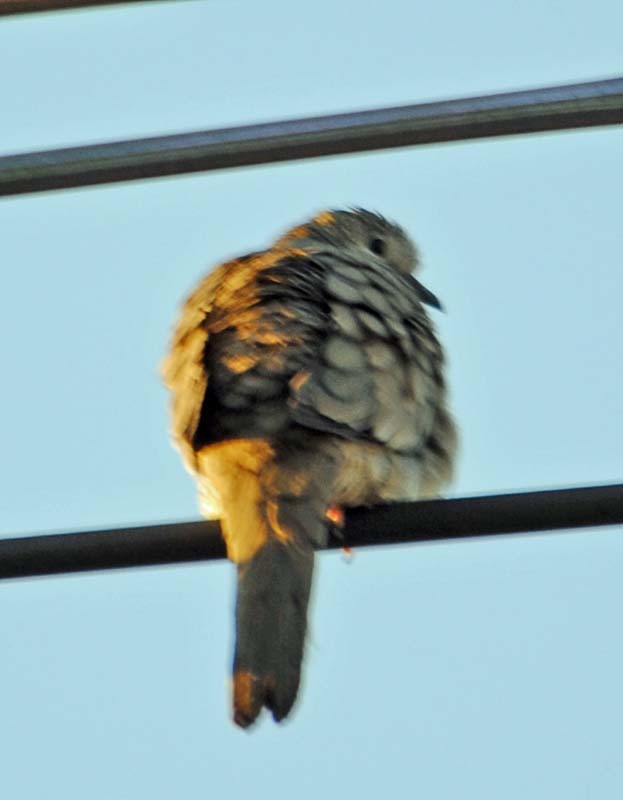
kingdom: Animalia
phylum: Chordata
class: Aves
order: Columbiformes
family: Columbidae
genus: Columbina
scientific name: Columbina inca
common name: Inca dove
